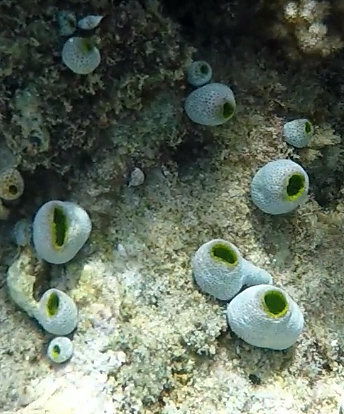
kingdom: Animalia
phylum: Chordata
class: Ascidiacea
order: Aplousobranchia
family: Didemnidae
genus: Didemnum
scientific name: Didemnum molle
